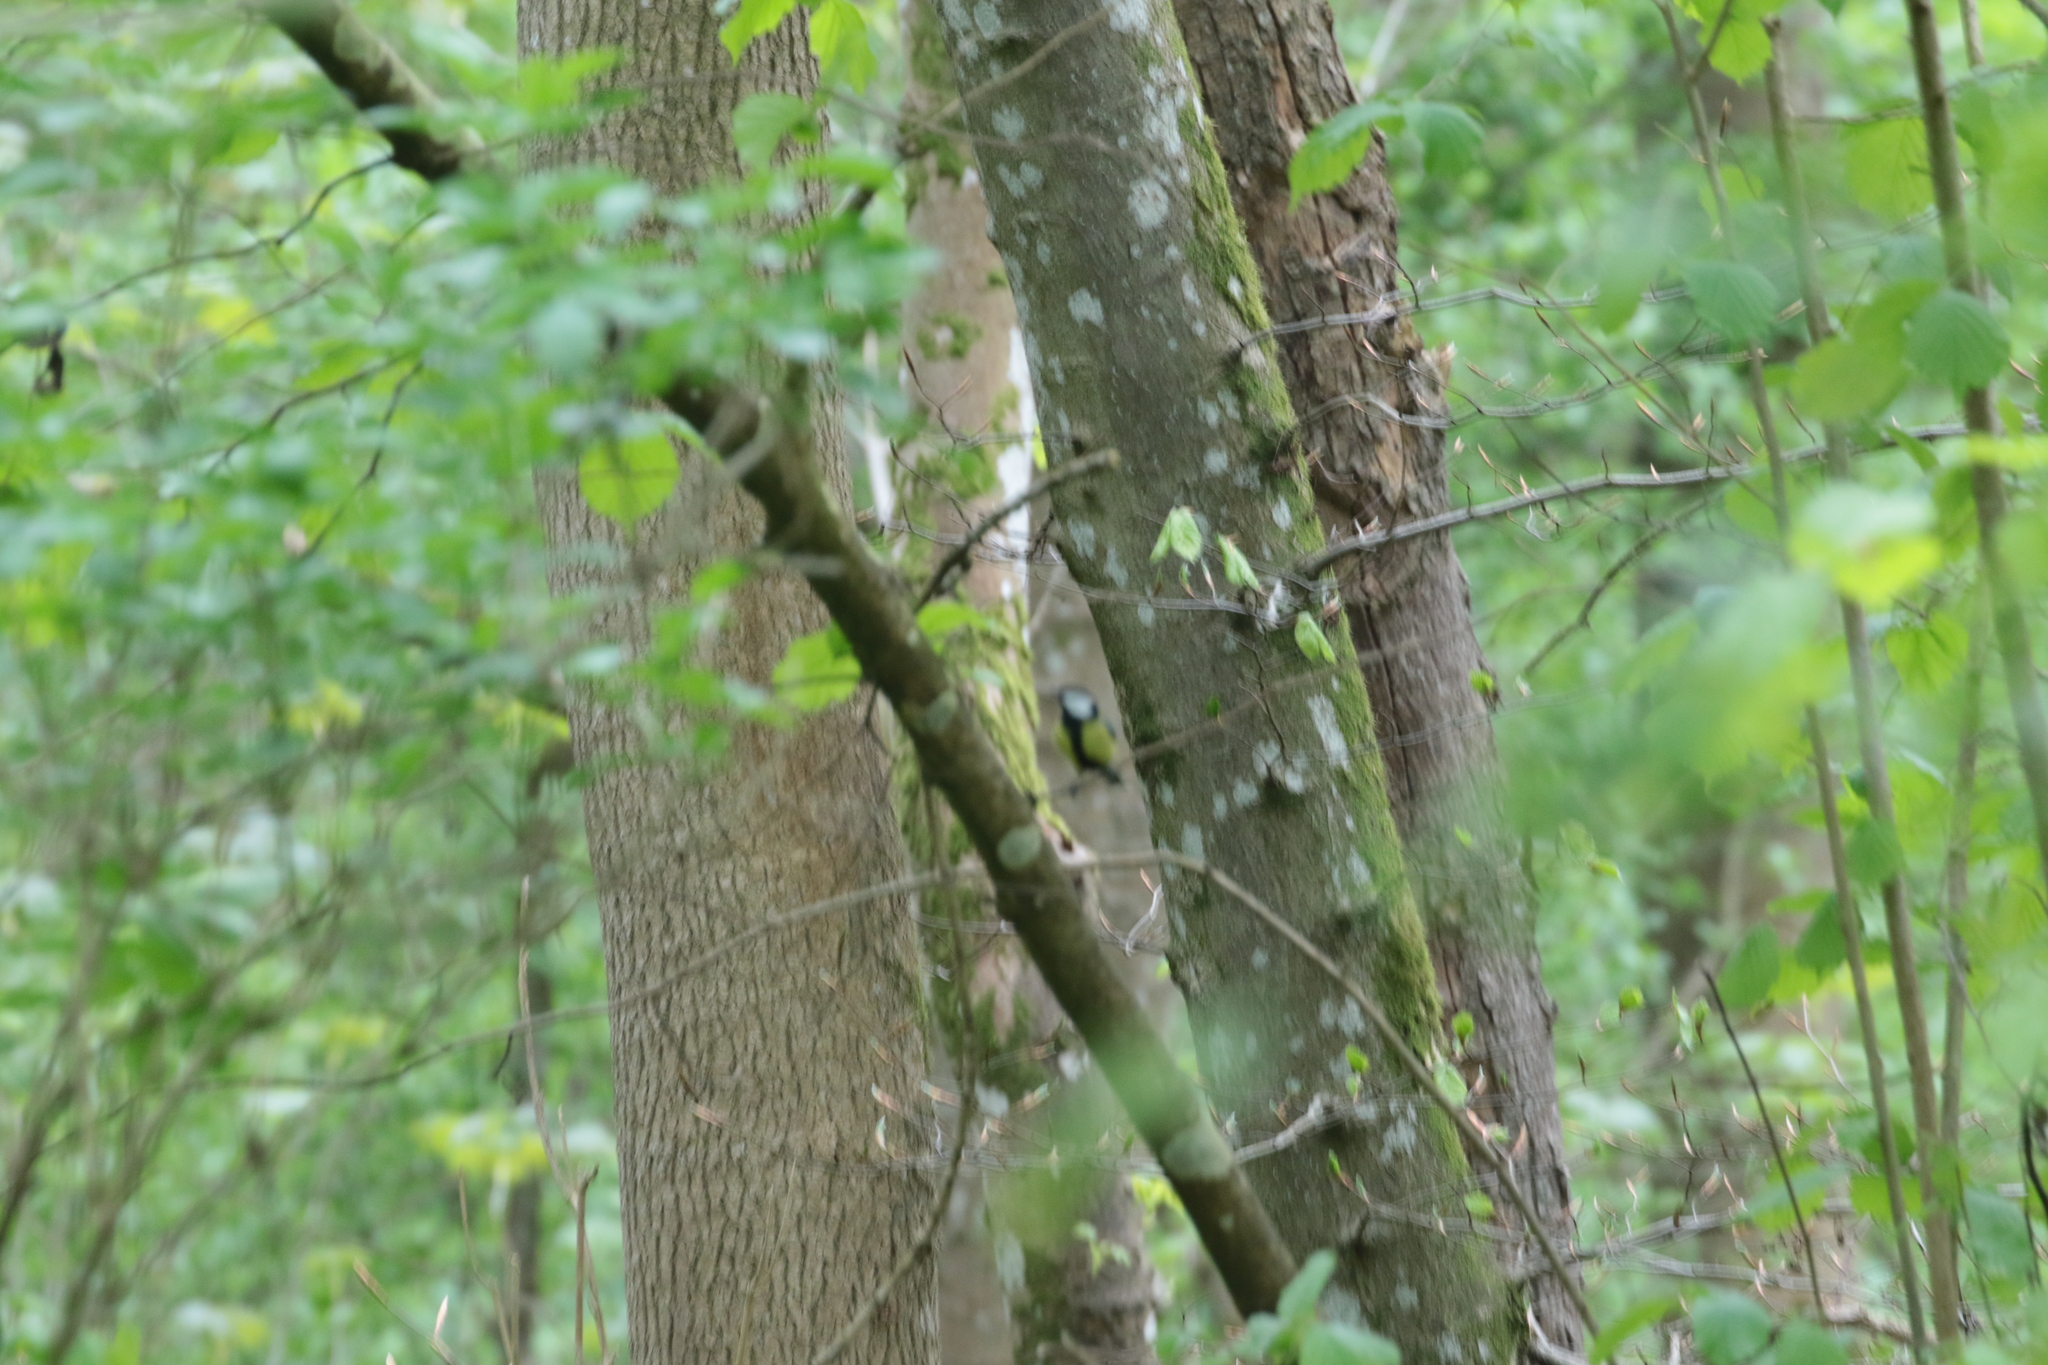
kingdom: Animalia
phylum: Chordata
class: Aves
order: Passeriformes
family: Paridae
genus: Parus
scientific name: Parus major
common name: Great tit
